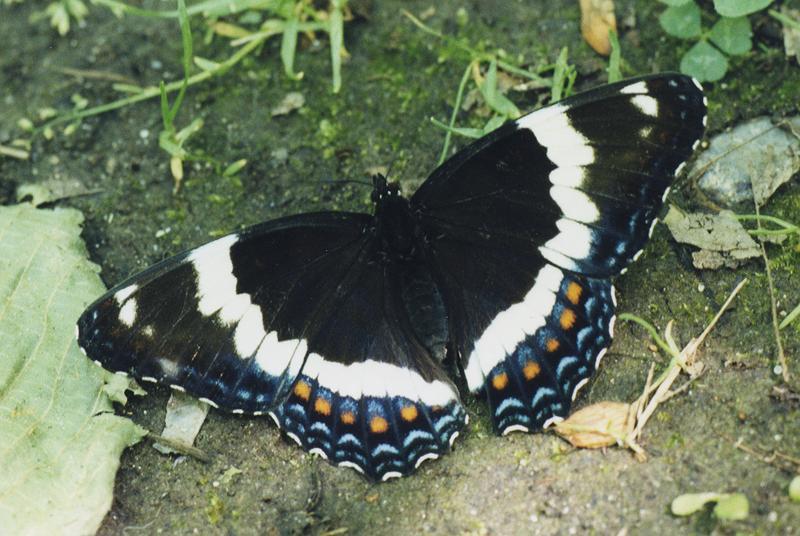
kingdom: Animalia
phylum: Arthropoda
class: Insecta
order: Lepidoptera
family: Nymphalidae
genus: Limenitis
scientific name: Limenitis arthemis
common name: Red-spotted admiral
